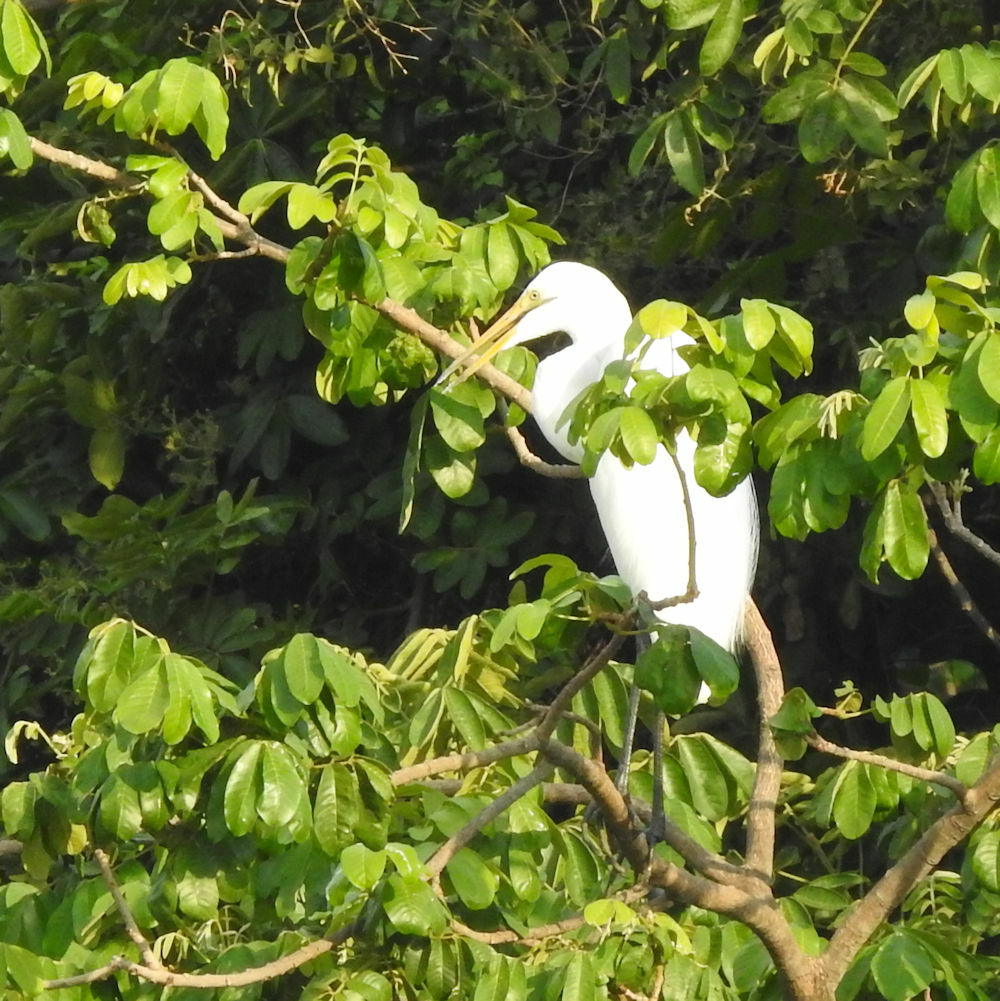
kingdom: Animalia
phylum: Chordata
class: Aves
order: Pelecaniformes
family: Ardeidae
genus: Ardea
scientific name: Ardea alba
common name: Great egret
